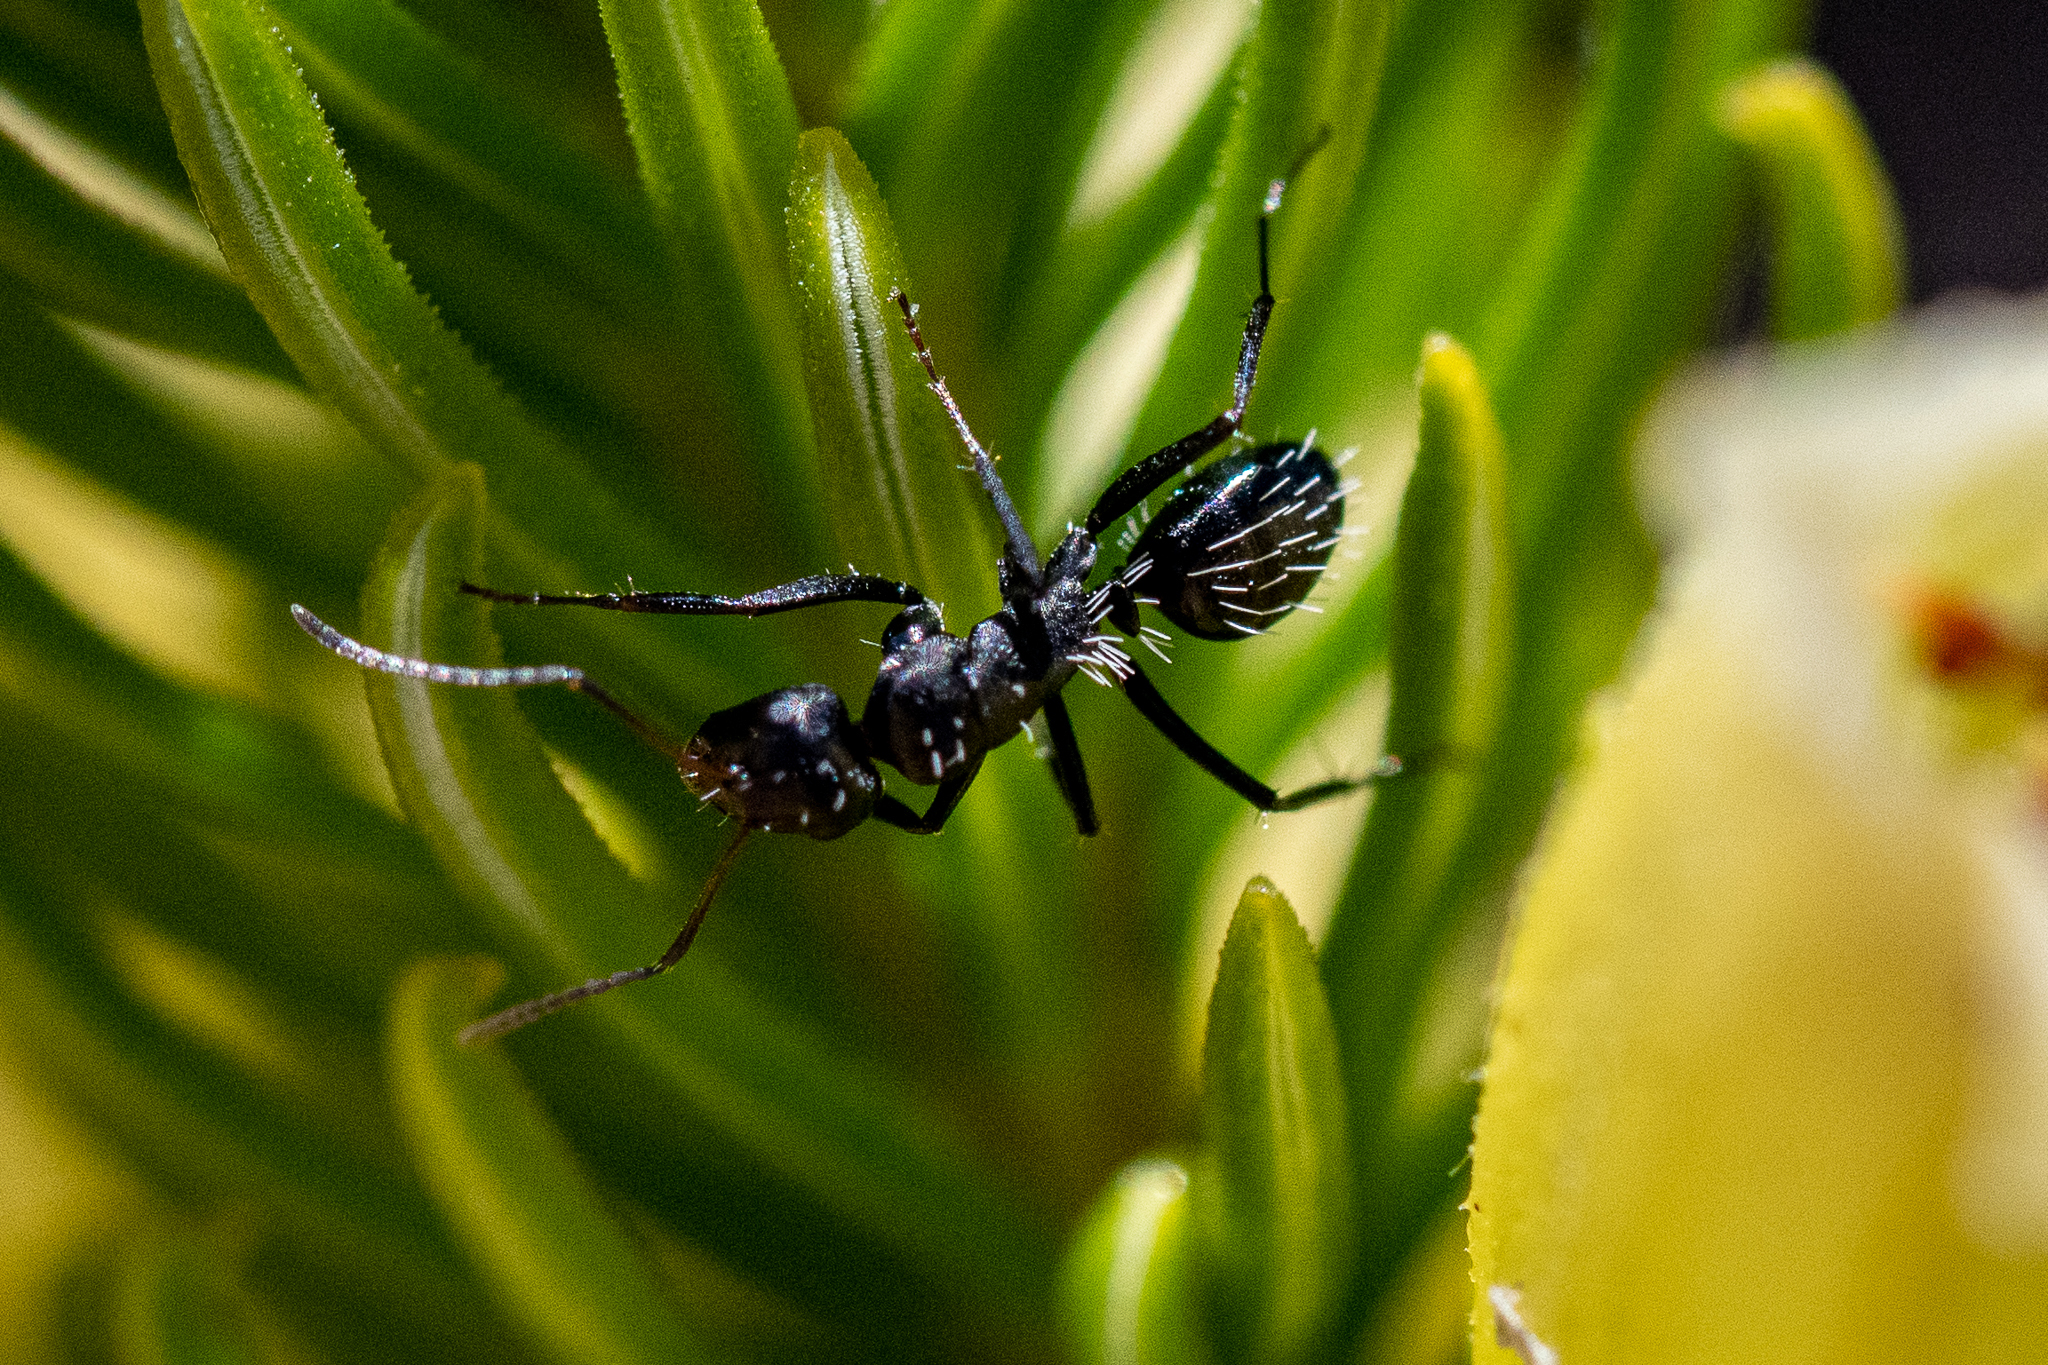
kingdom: Animalia
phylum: Arthropoda
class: Insecta
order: Hymenoptera
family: Formicidae
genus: Camponotus
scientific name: Camponotus niveosetosus
